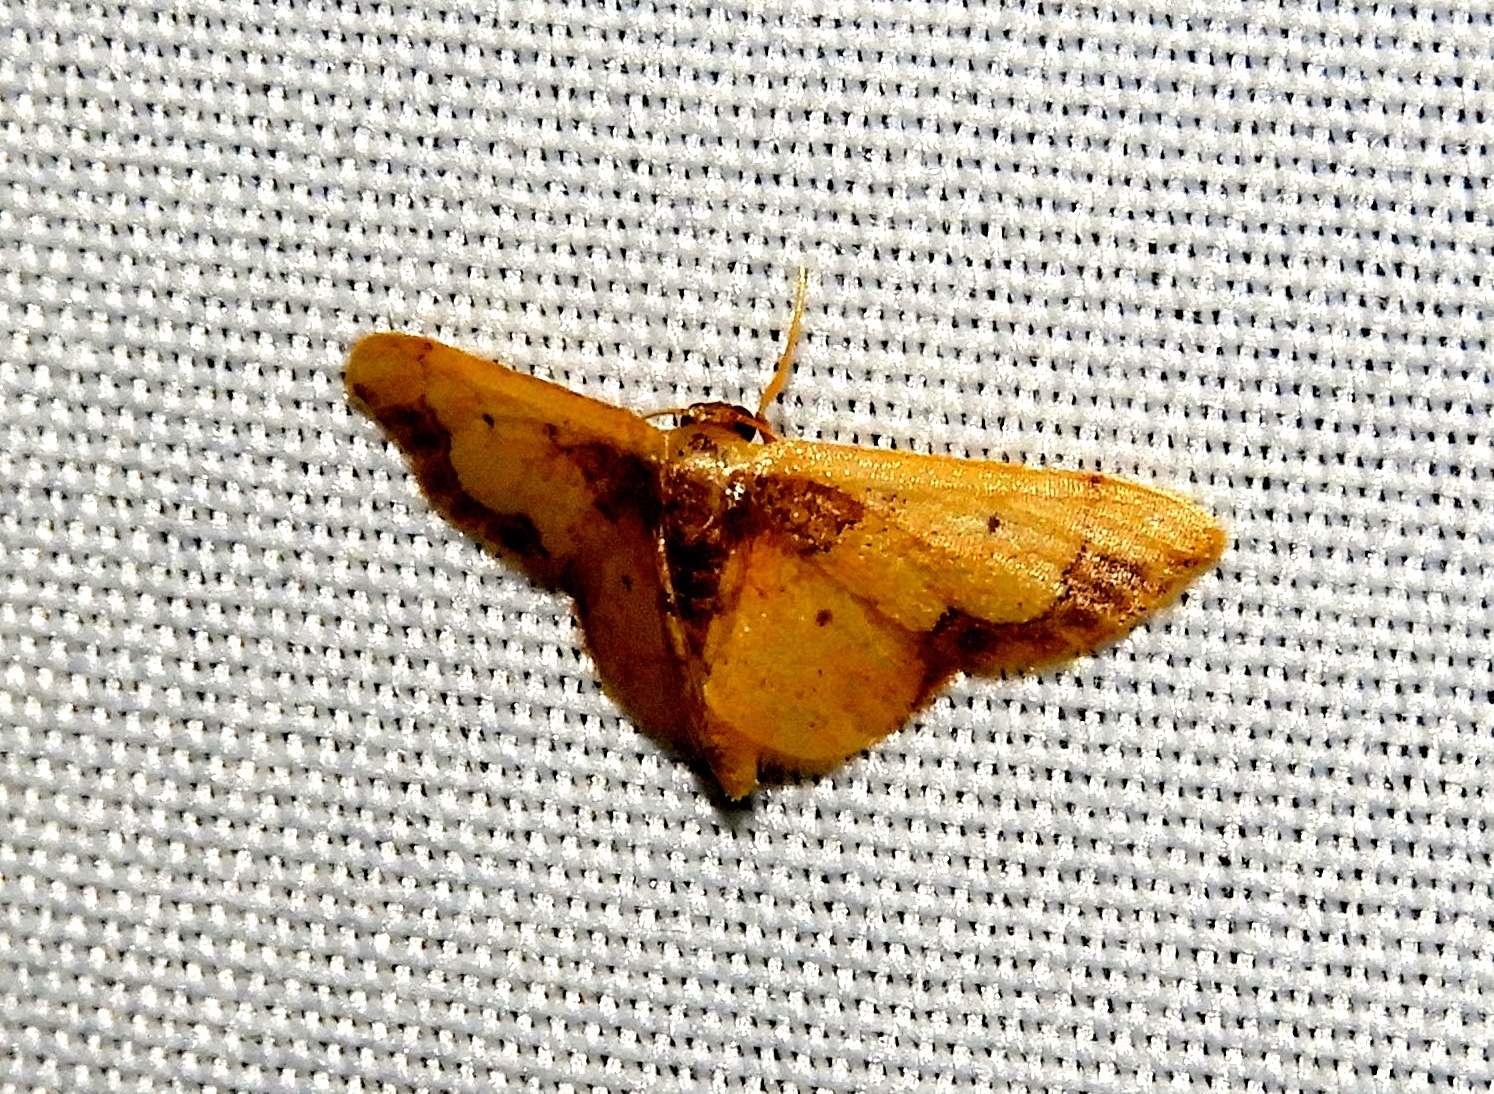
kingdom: Animalia
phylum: Arthropoda
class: Insecta
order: Lepidoptera
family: Geometridae
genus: Idaea
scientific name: Idaea
